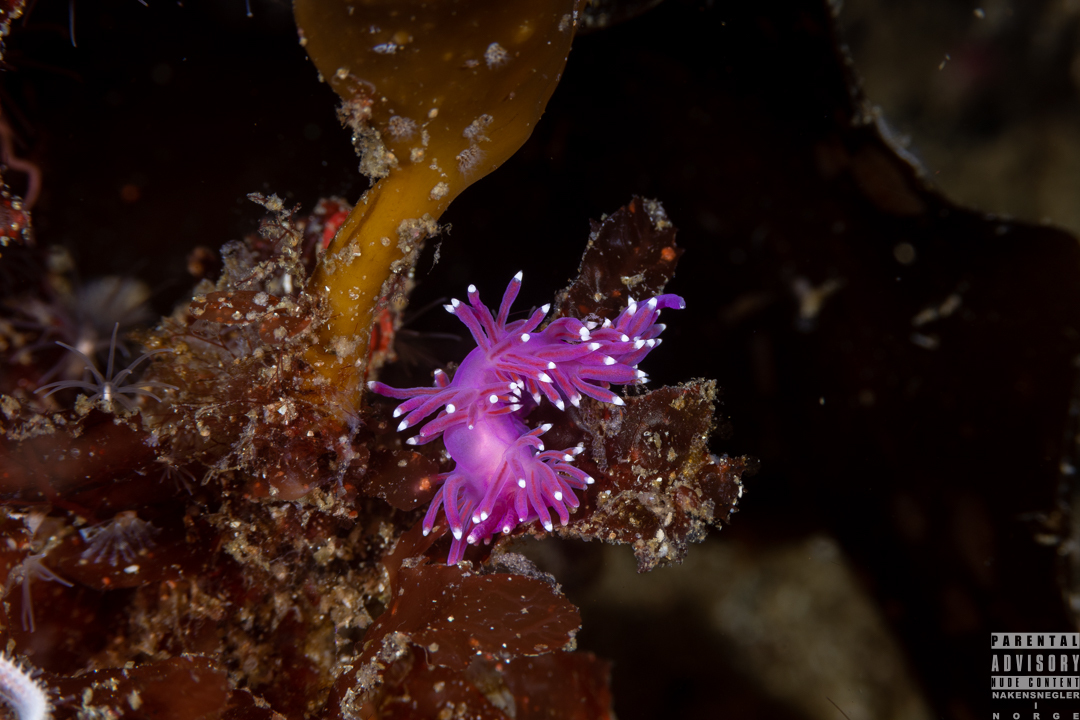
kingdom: Animalia
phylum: Mollusca
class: Gastropoda
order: Nudibranchia
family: Flabellinidae
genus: Edmundsella
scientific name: Edmundsella pedata
